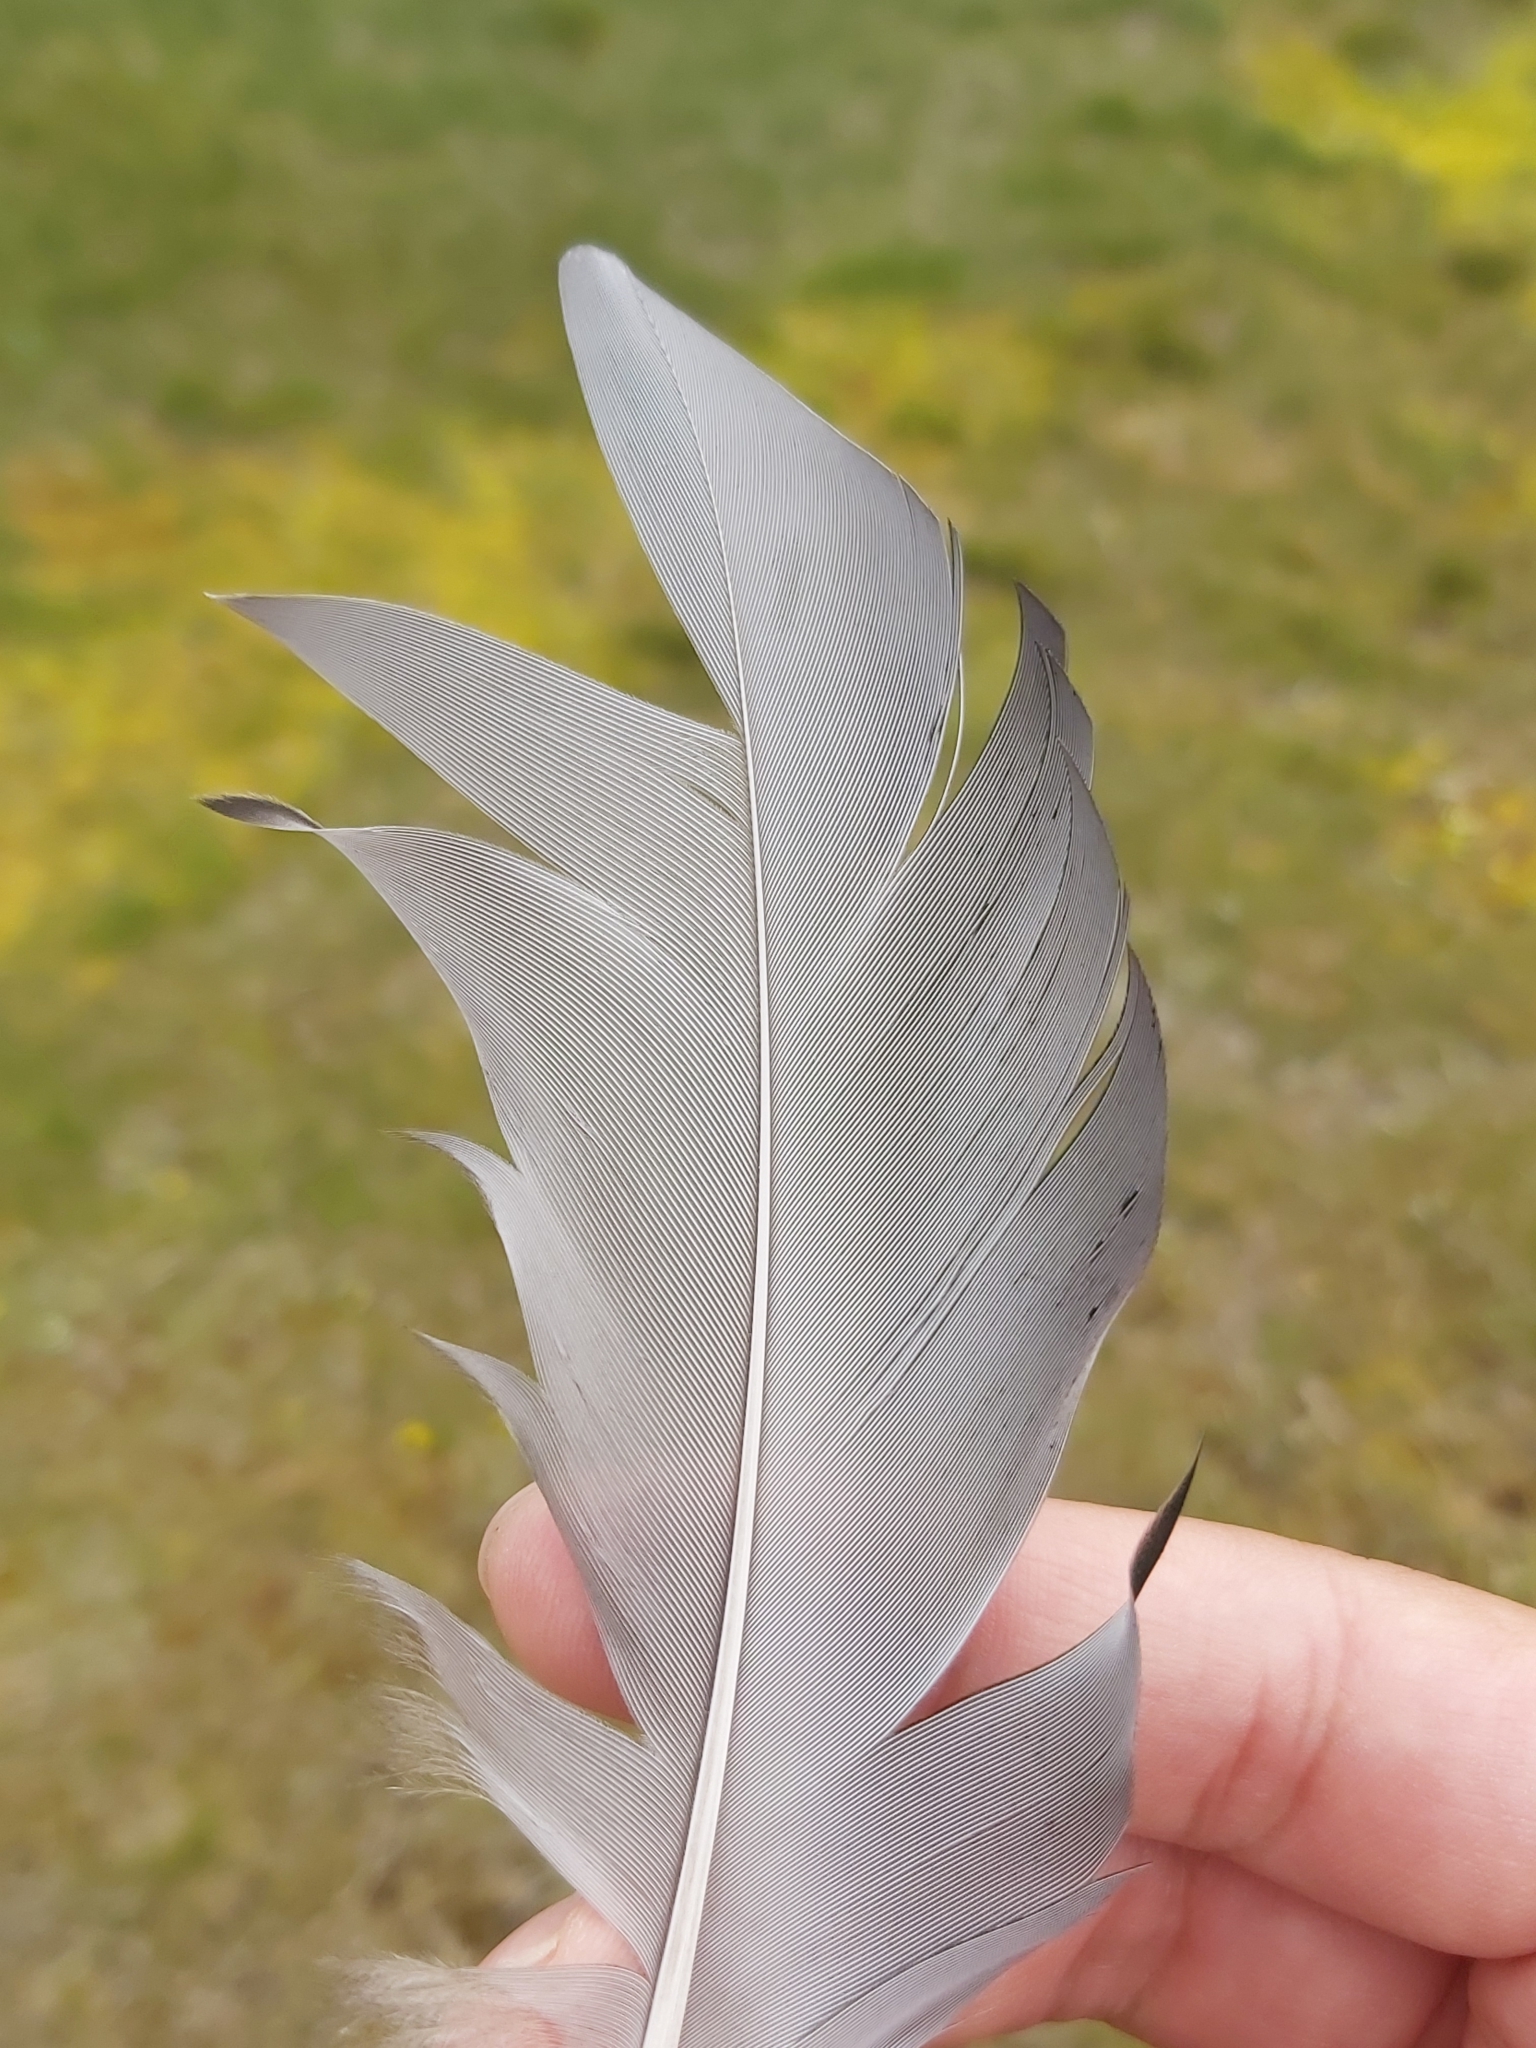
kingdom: Animalia
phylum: Chordata
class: Aves
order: Anseriformes
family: Anatidae
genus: Chenonetta
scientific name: Chenonetta jubata
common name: Maned duck
